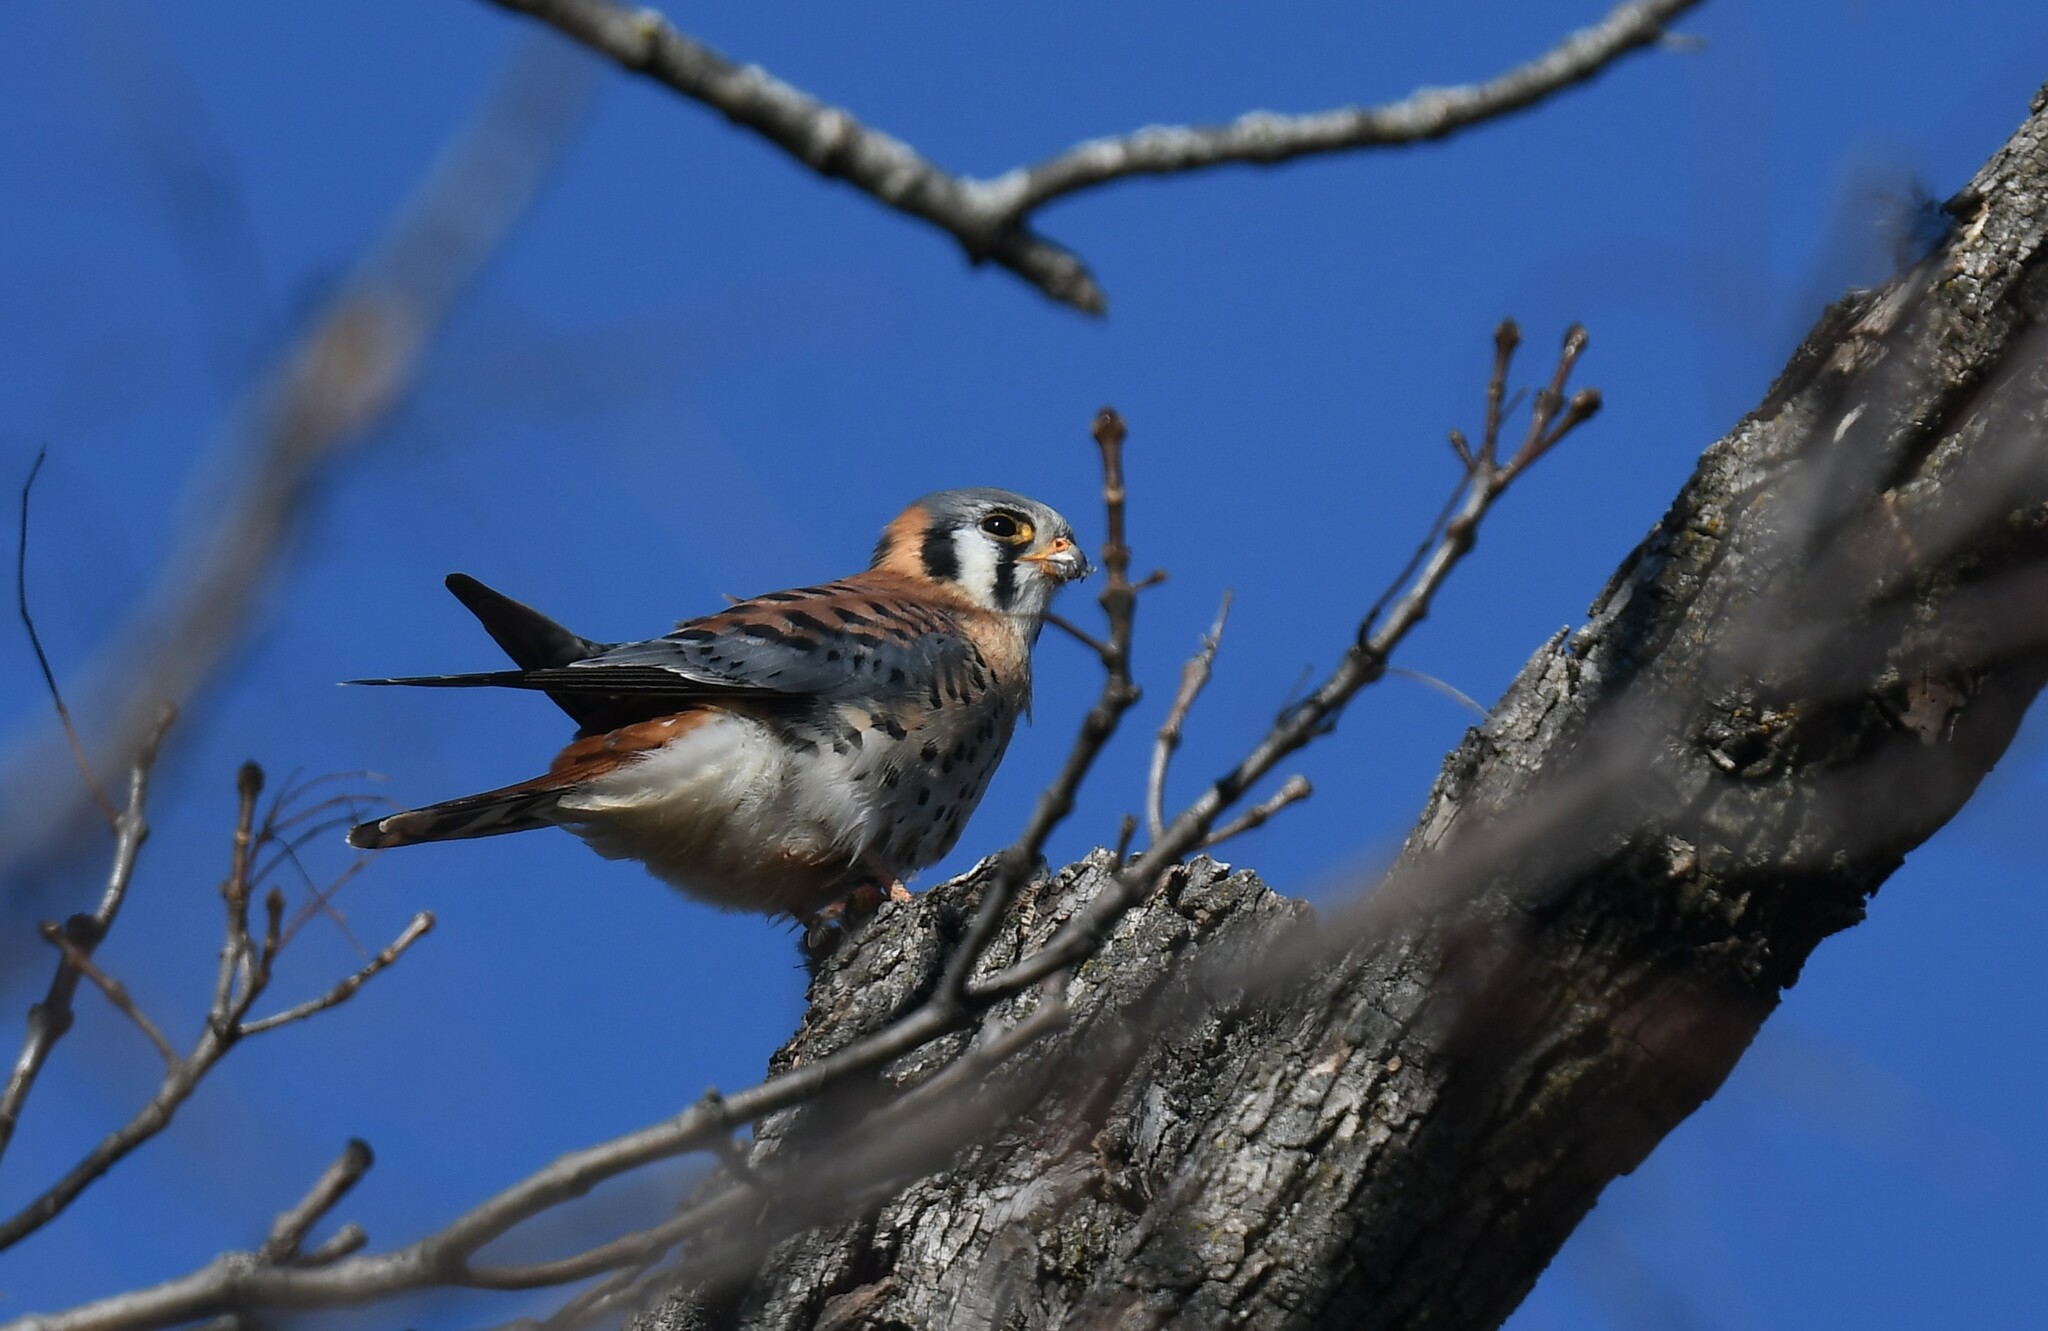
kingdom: Animalia
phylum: Chordata
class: Aves
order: Falconiformes
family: Falconidae
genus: Falco
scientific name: Falco sparverius
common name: American kestrel
